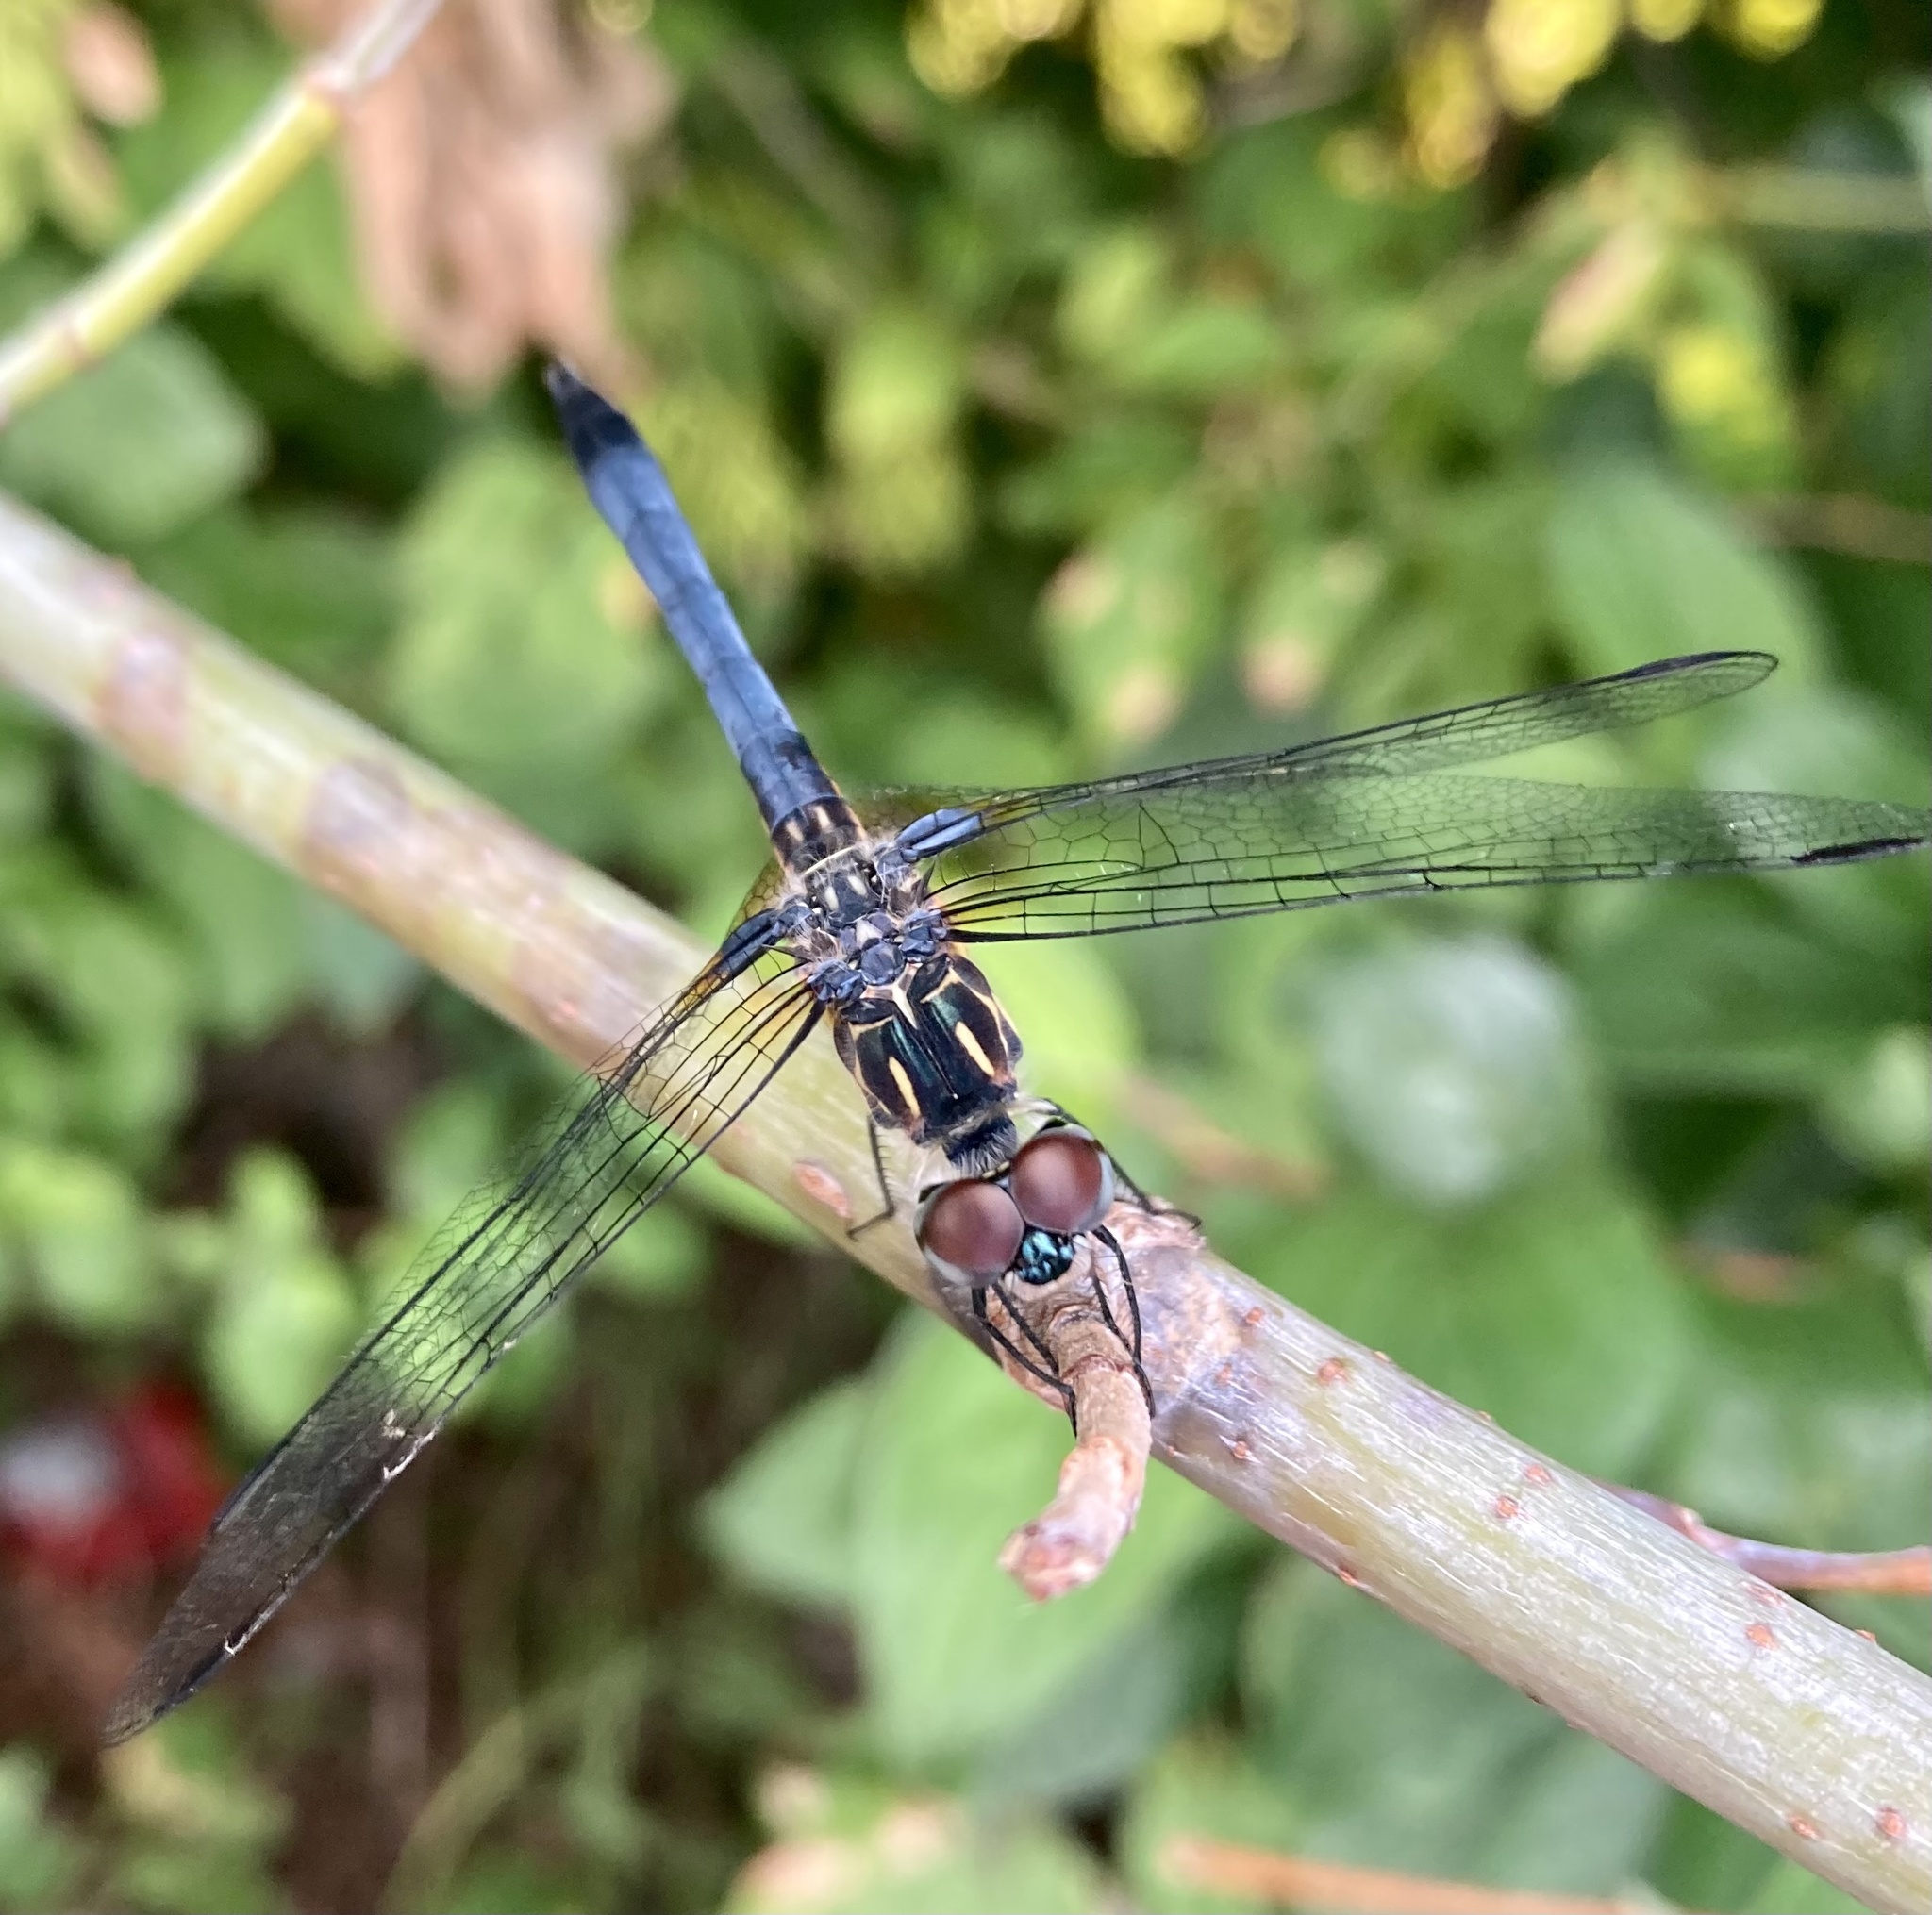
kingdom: Animalia
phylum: Arthropoda
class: Insecta
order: Odonata
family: Libellulidae
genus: Pachydiplax
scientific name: Pachydiplax longipennis
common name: Blue dasher
